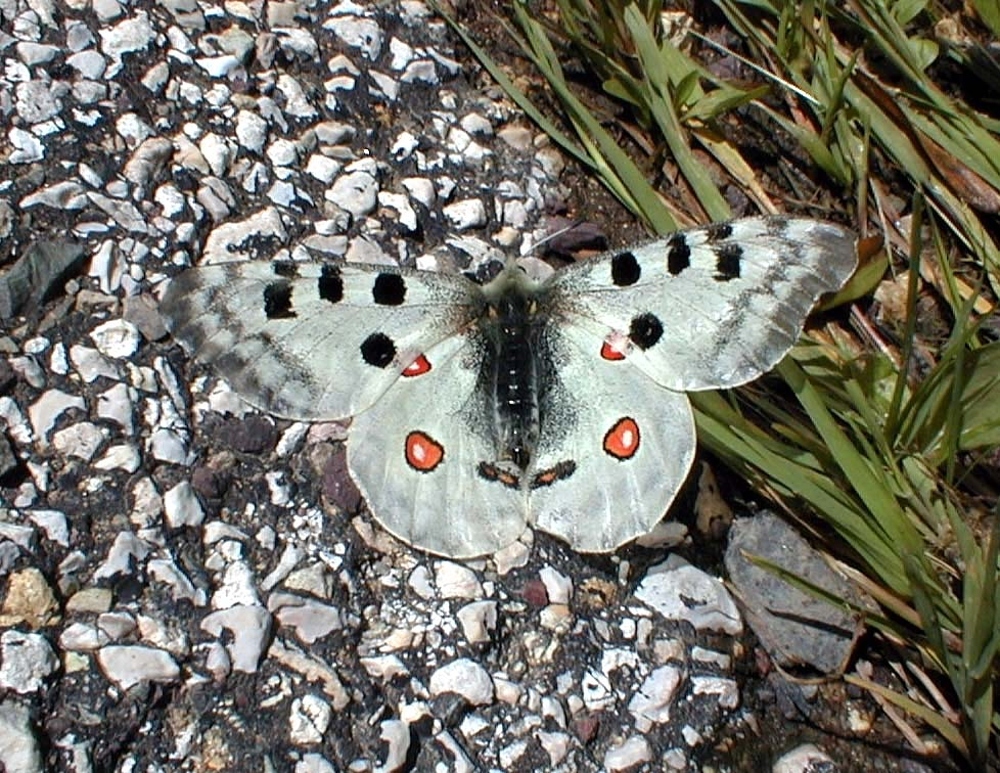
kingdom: Animalia
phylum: Arthropoda
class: Insecta
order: Lepidoptera
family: Papilionidae
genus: Parnassius
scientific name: Parnassius apollo
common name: Apollo
